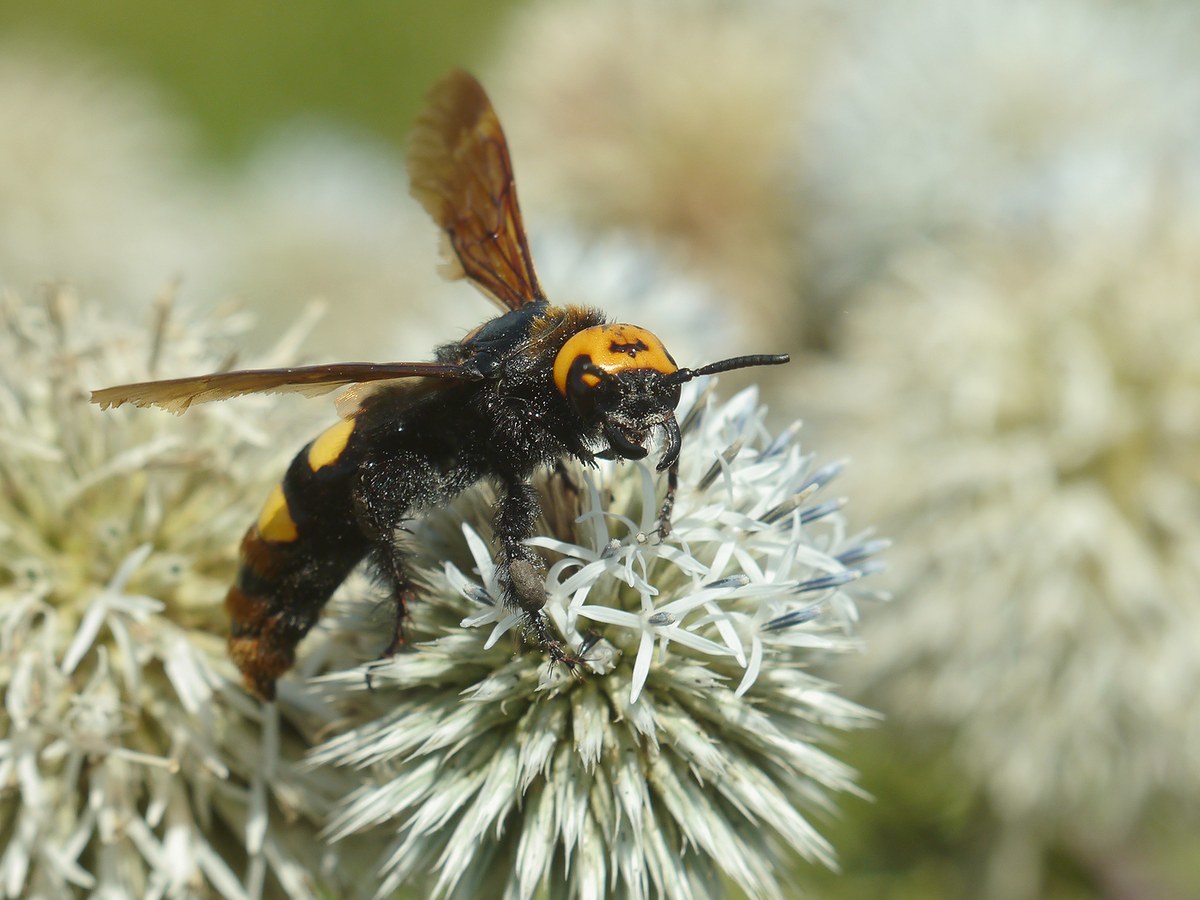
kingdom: Animalia
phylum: Arthropoda
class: Insecta
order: Hymenoptera
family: Scoliidae
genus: Megascolia
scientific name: Megascolia maculata
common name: Mammoth wasp
